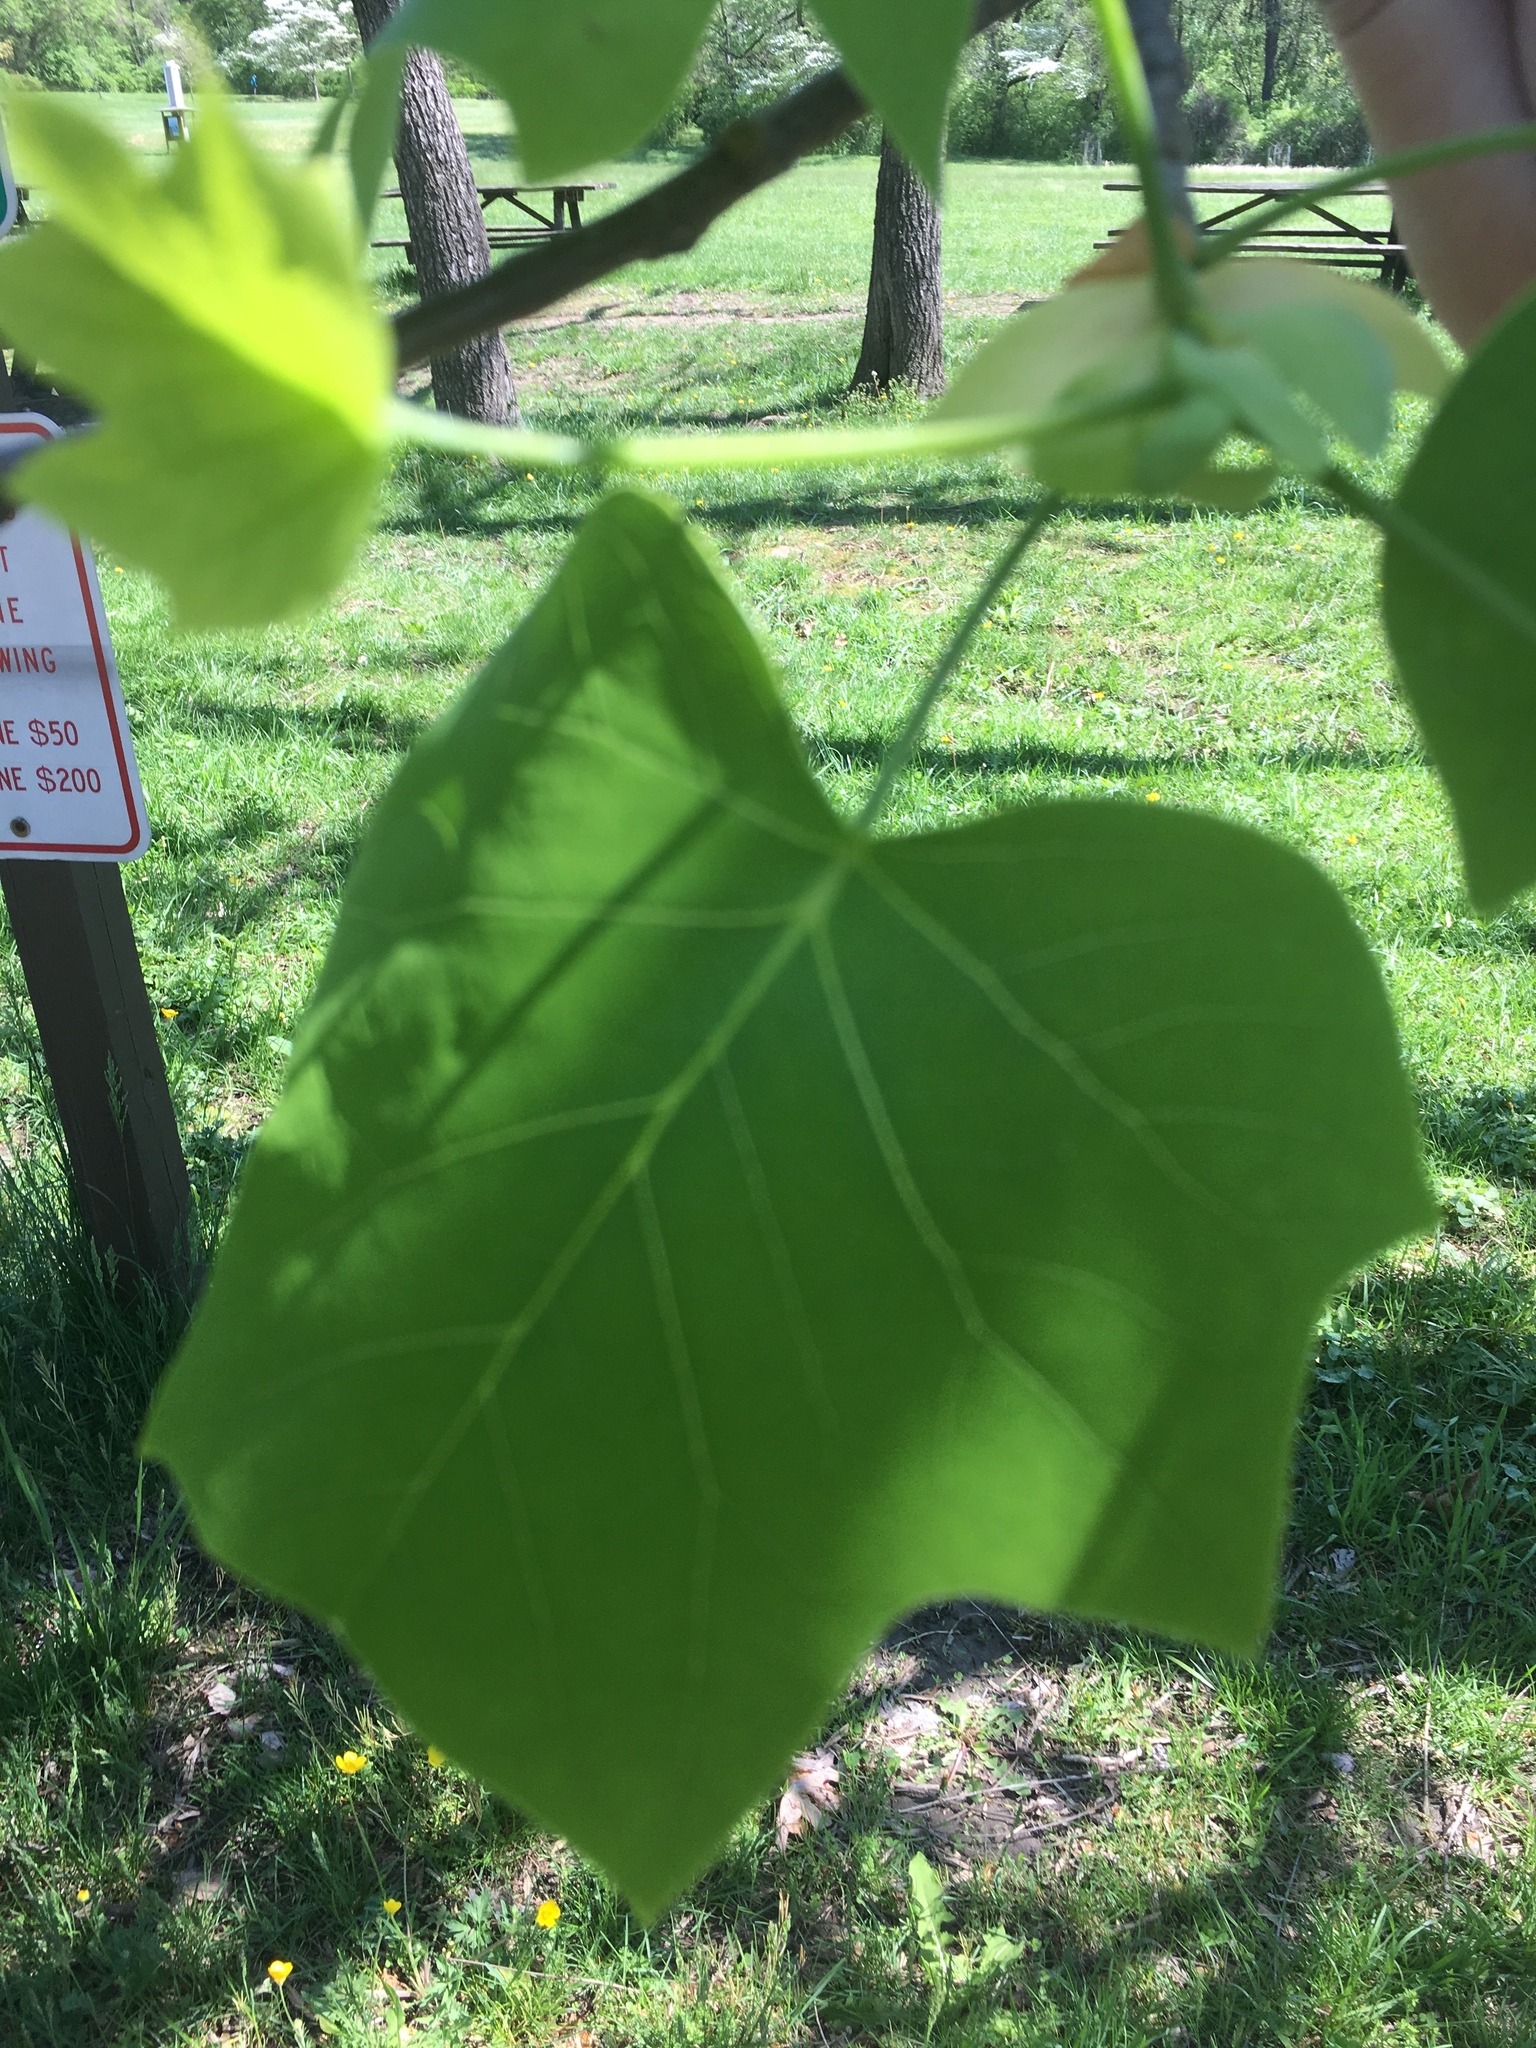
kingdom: Plantae
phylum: Tracheophyta
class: Magnoliopsida
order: Magnoliales
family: Magnoliaceae
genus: Liriodendron
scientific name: Liriodendron tulipifera
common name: Tulip tree
